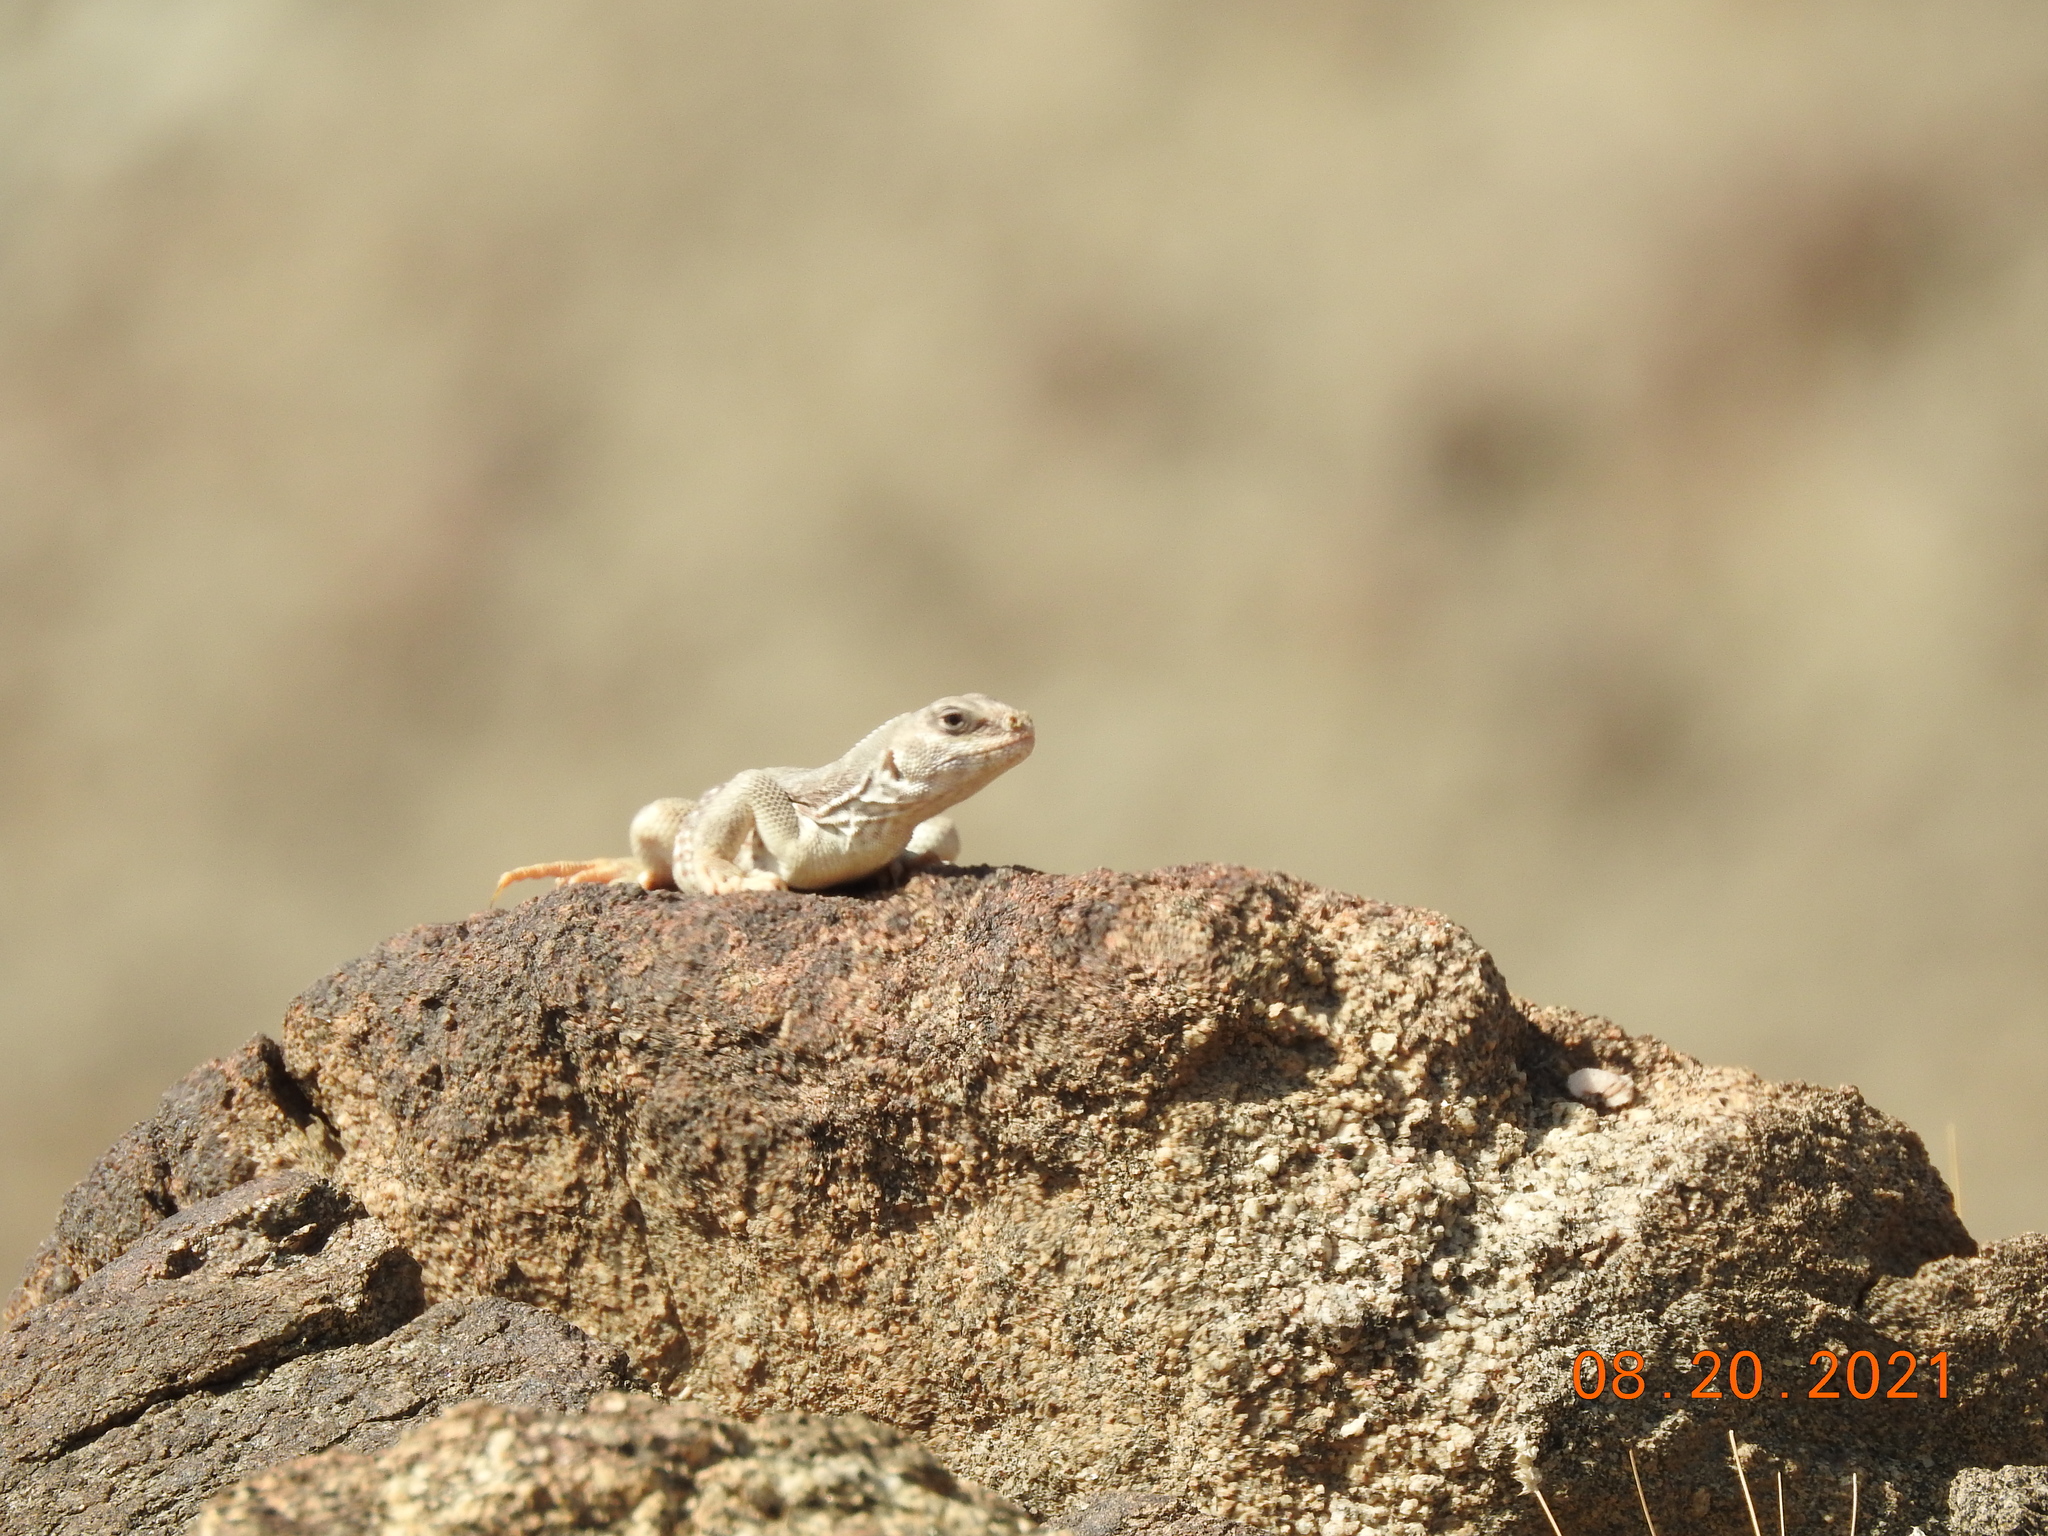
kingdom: Animalia
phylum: Chordata
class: Squamata
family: Iguanidae
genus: Dipsosaurus
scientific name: Dipsosaurus dorsalis
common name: Desert iguana
